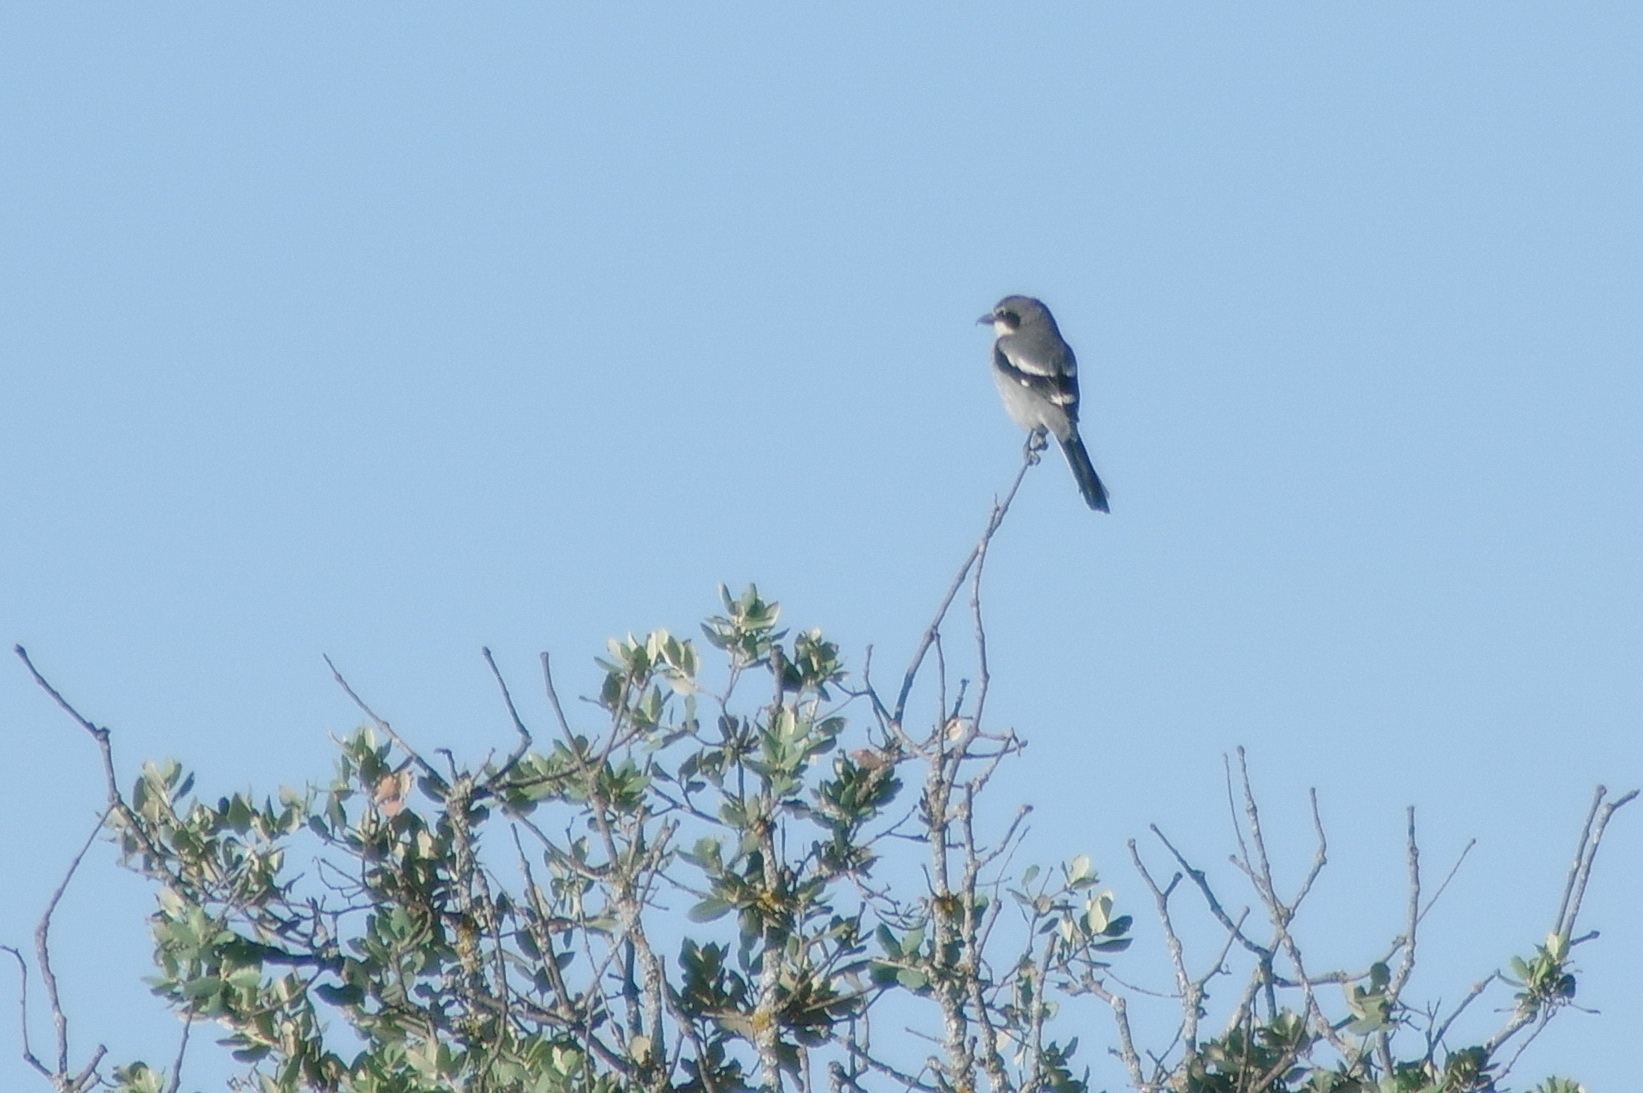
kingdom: Animalia
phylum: Chordata
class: Aves
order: Passeriformes
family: Laniidae
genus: Lanius
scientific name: Lanius meridionalis
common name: Iberian grey shrike
